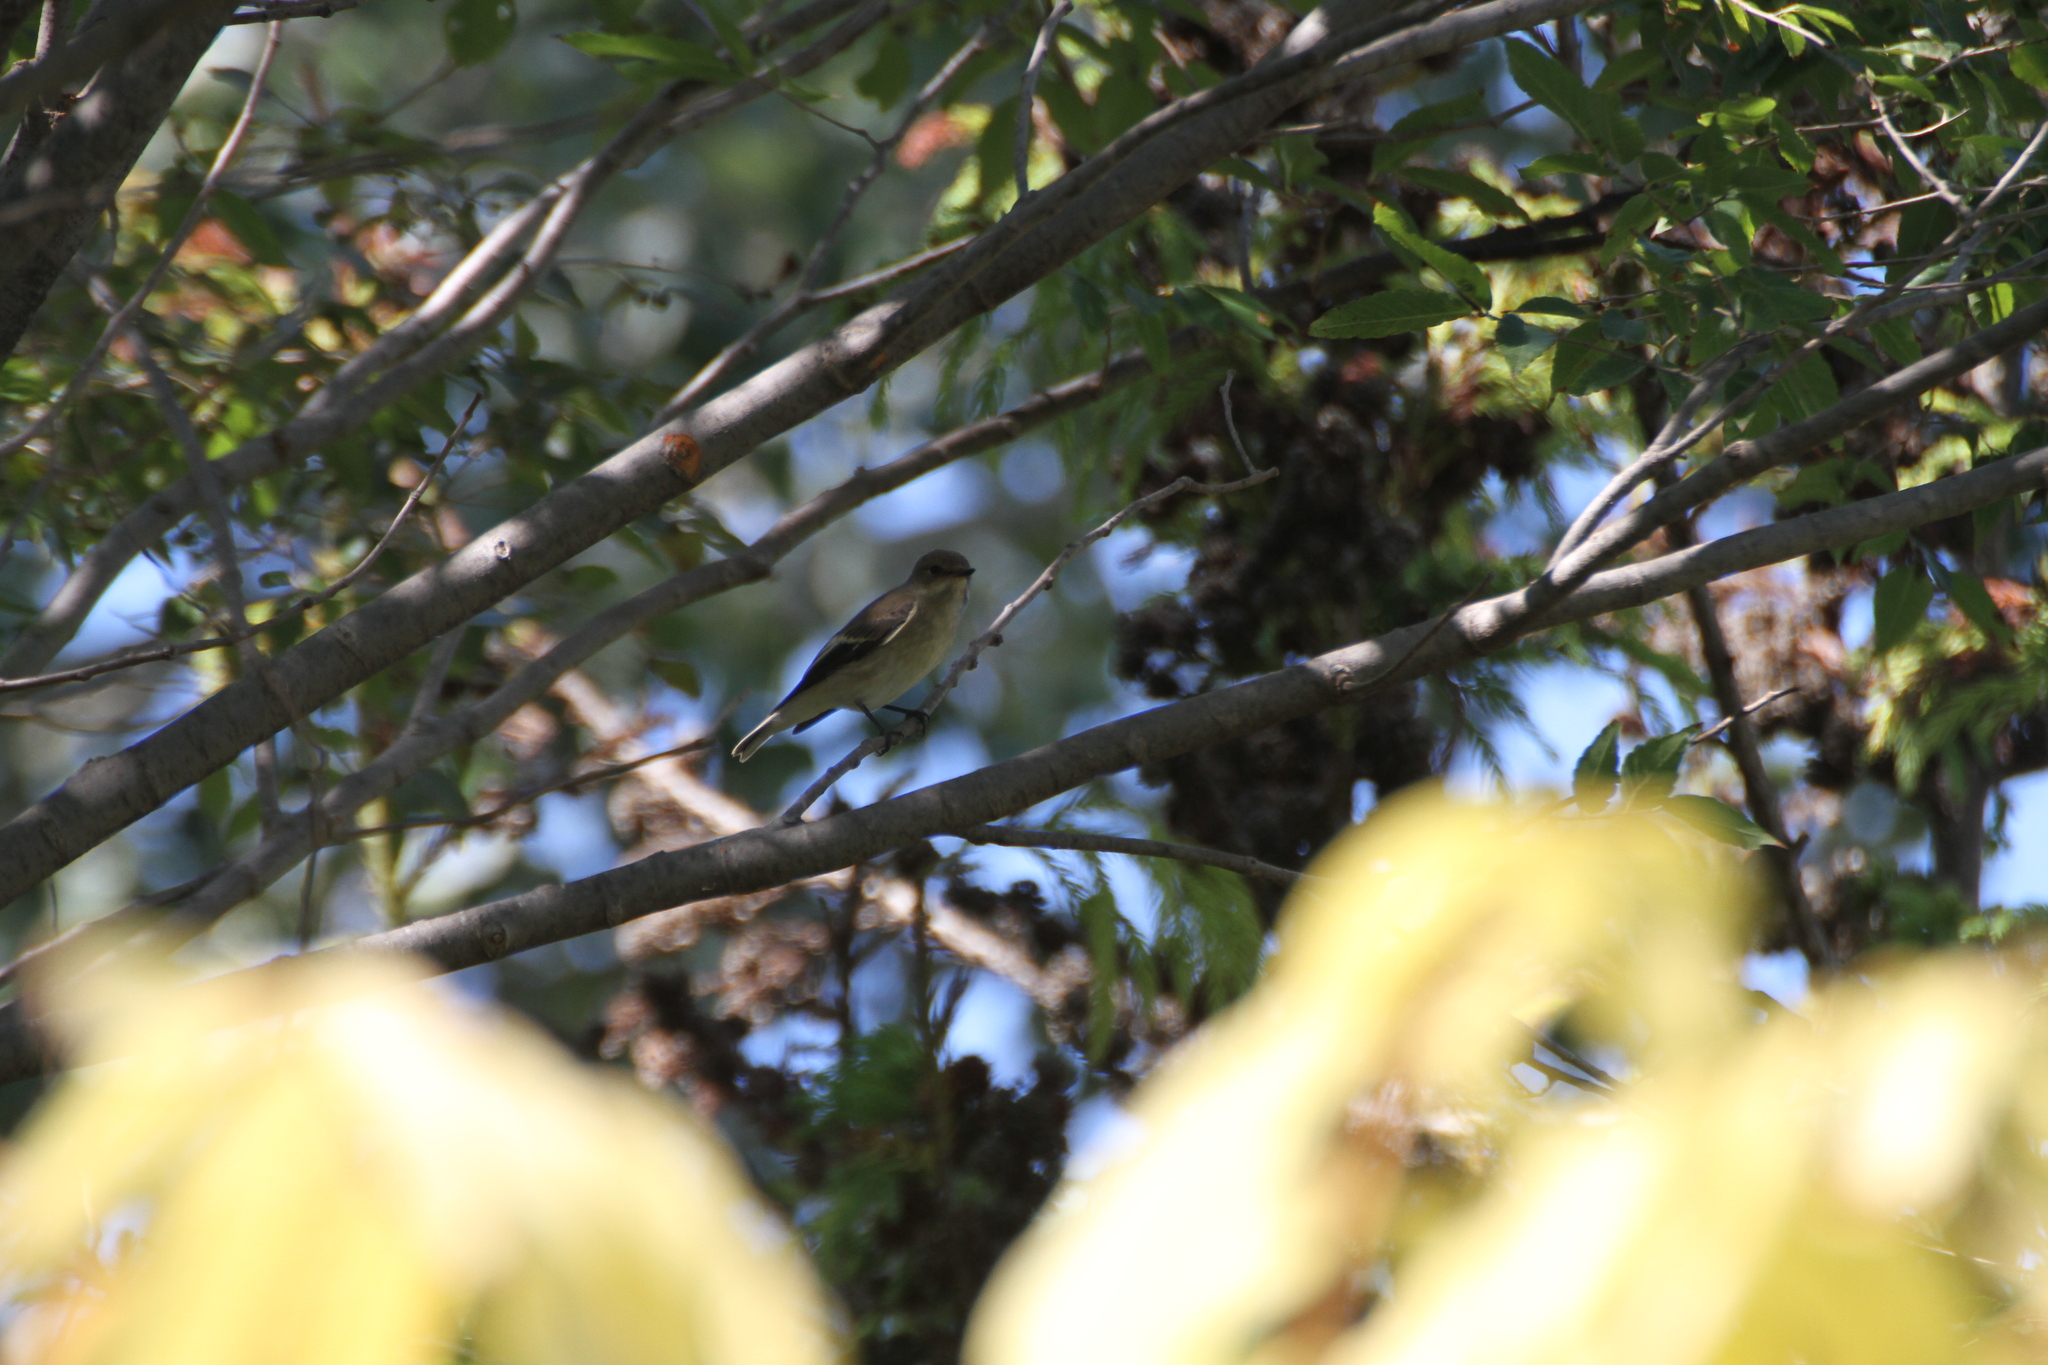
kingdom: Animalia
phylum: Chordata
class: Aves
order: Passeriformes
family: Muscicapidae
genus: Ficedula
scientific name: Ficedula hypoleuca
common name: European pied flycatcher
